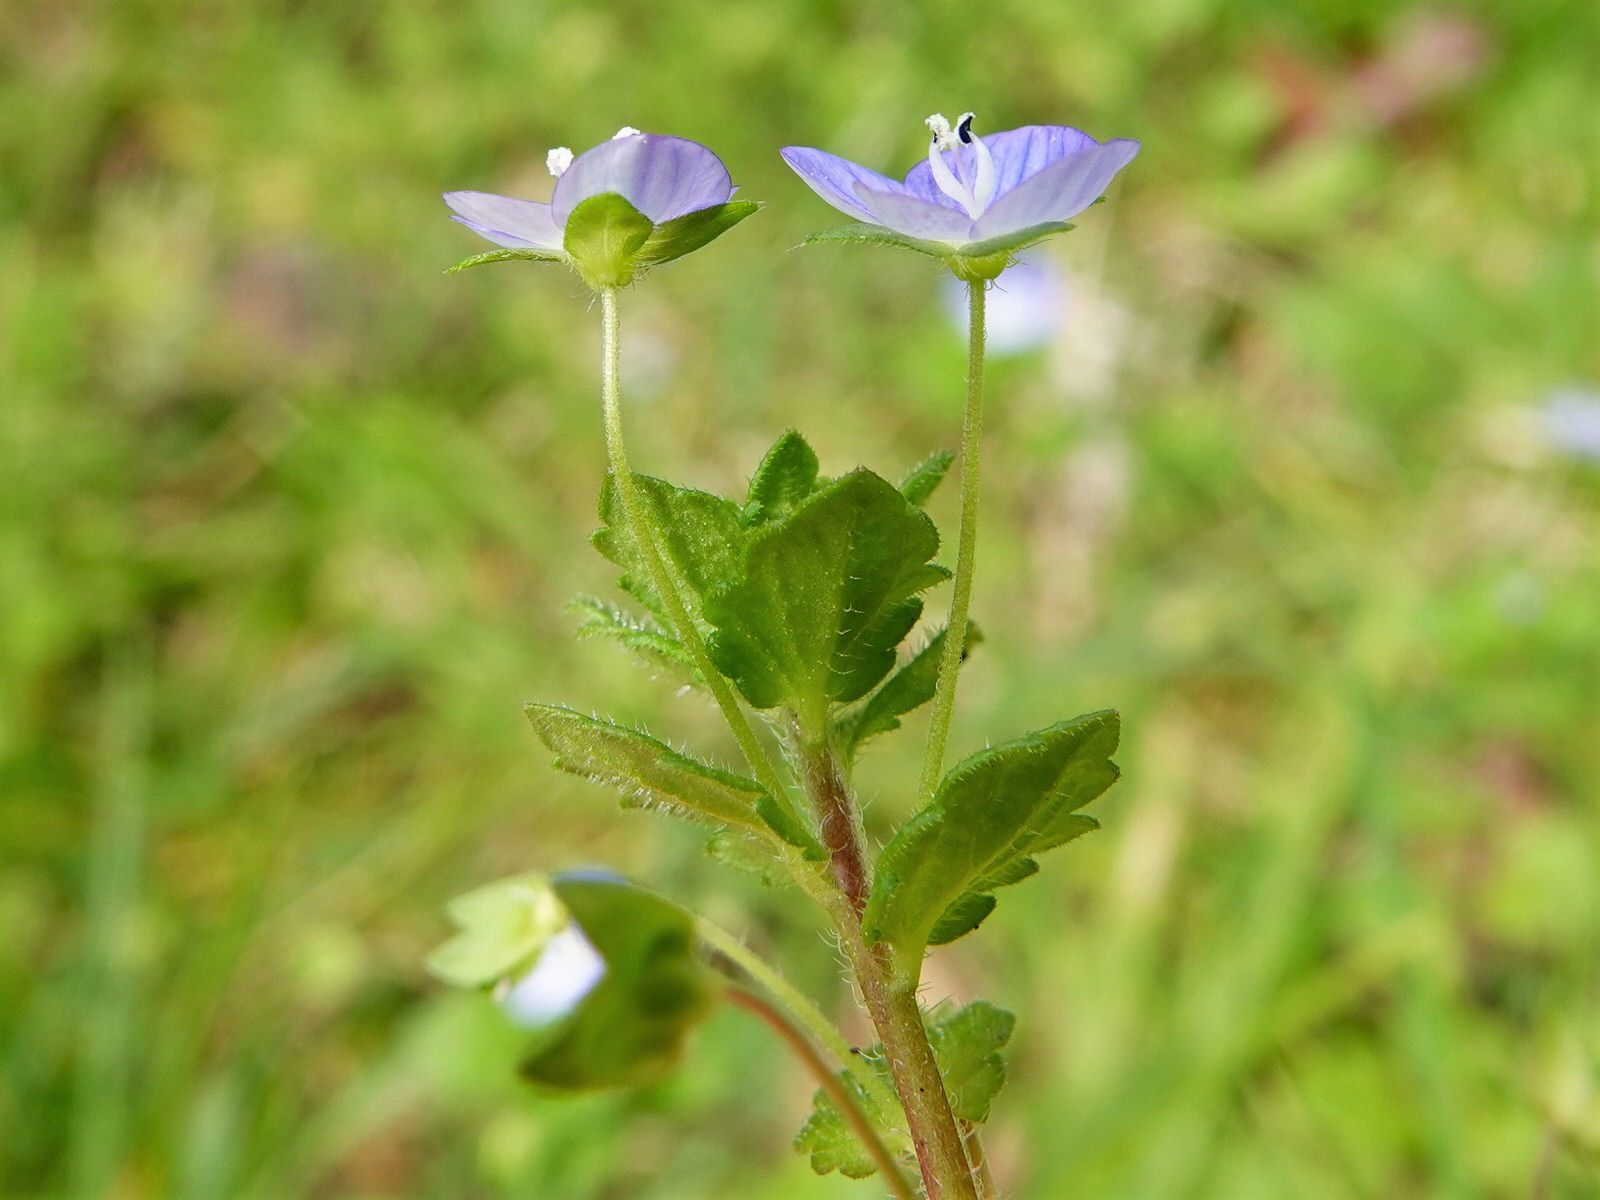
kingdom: Plantae
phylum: Tracheophyta
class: Magnoliopsida
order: Lamiales
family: Plantaginaceae
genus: Veronica
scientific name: Veronica persica
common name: Common field-speedwell
